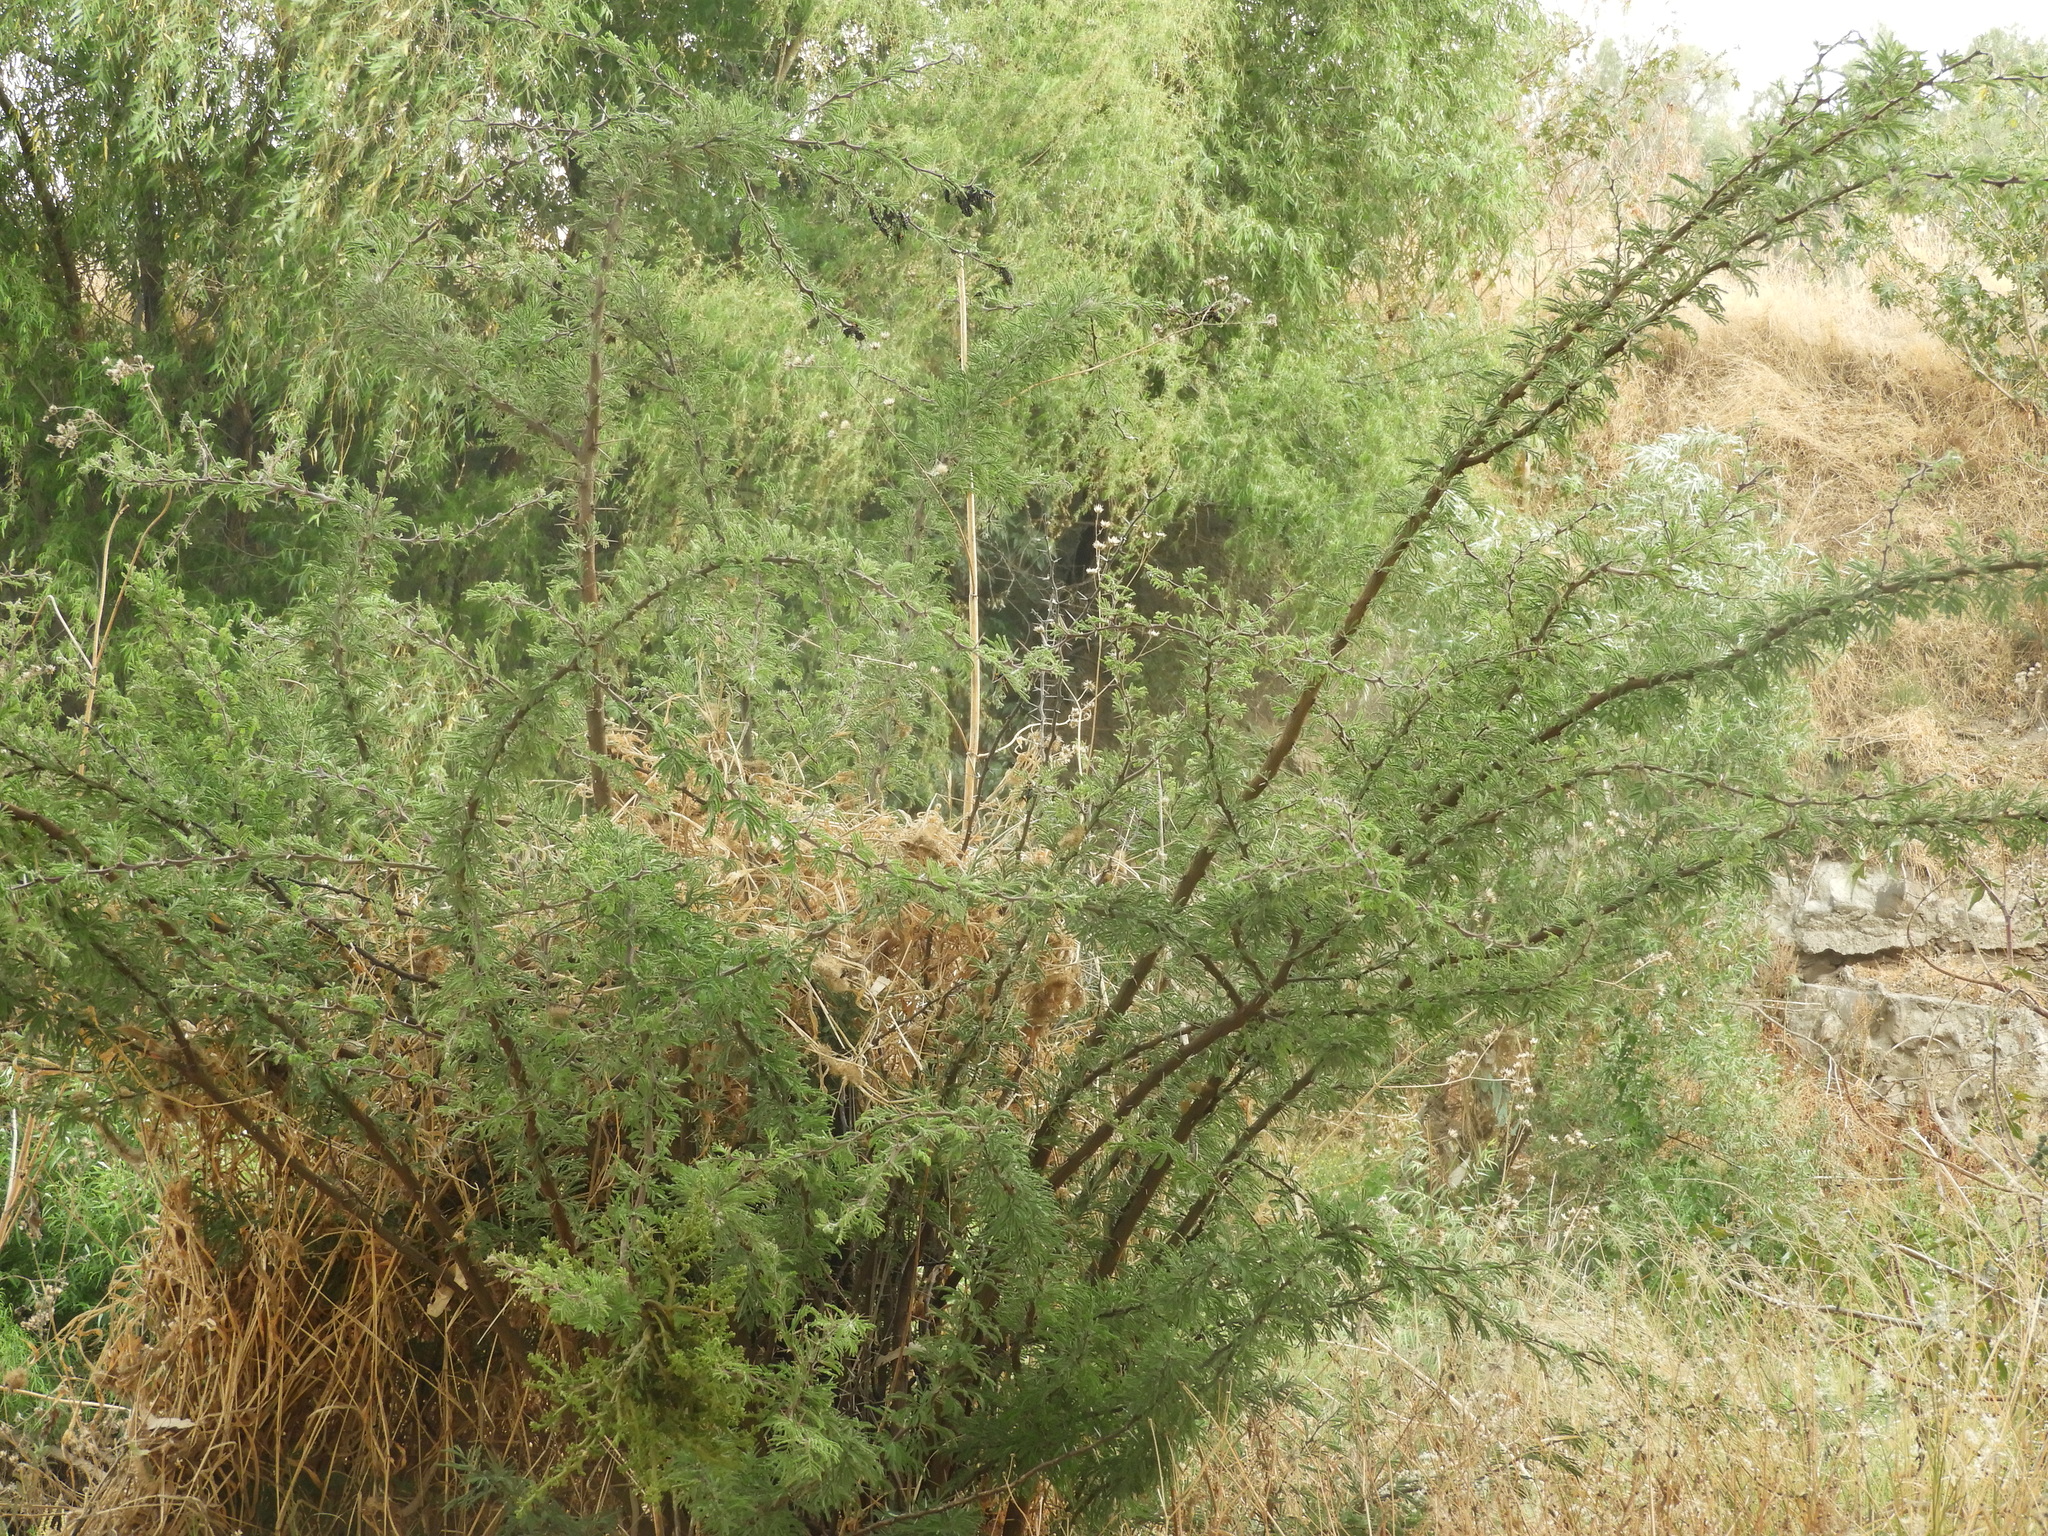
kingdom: Plantae
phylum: Tracheophyta
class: Magnoliopsida
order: Fabales
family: Fabaceae
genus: Vachellia
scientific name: Vachellia farnesiana
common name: Sweet acacia
